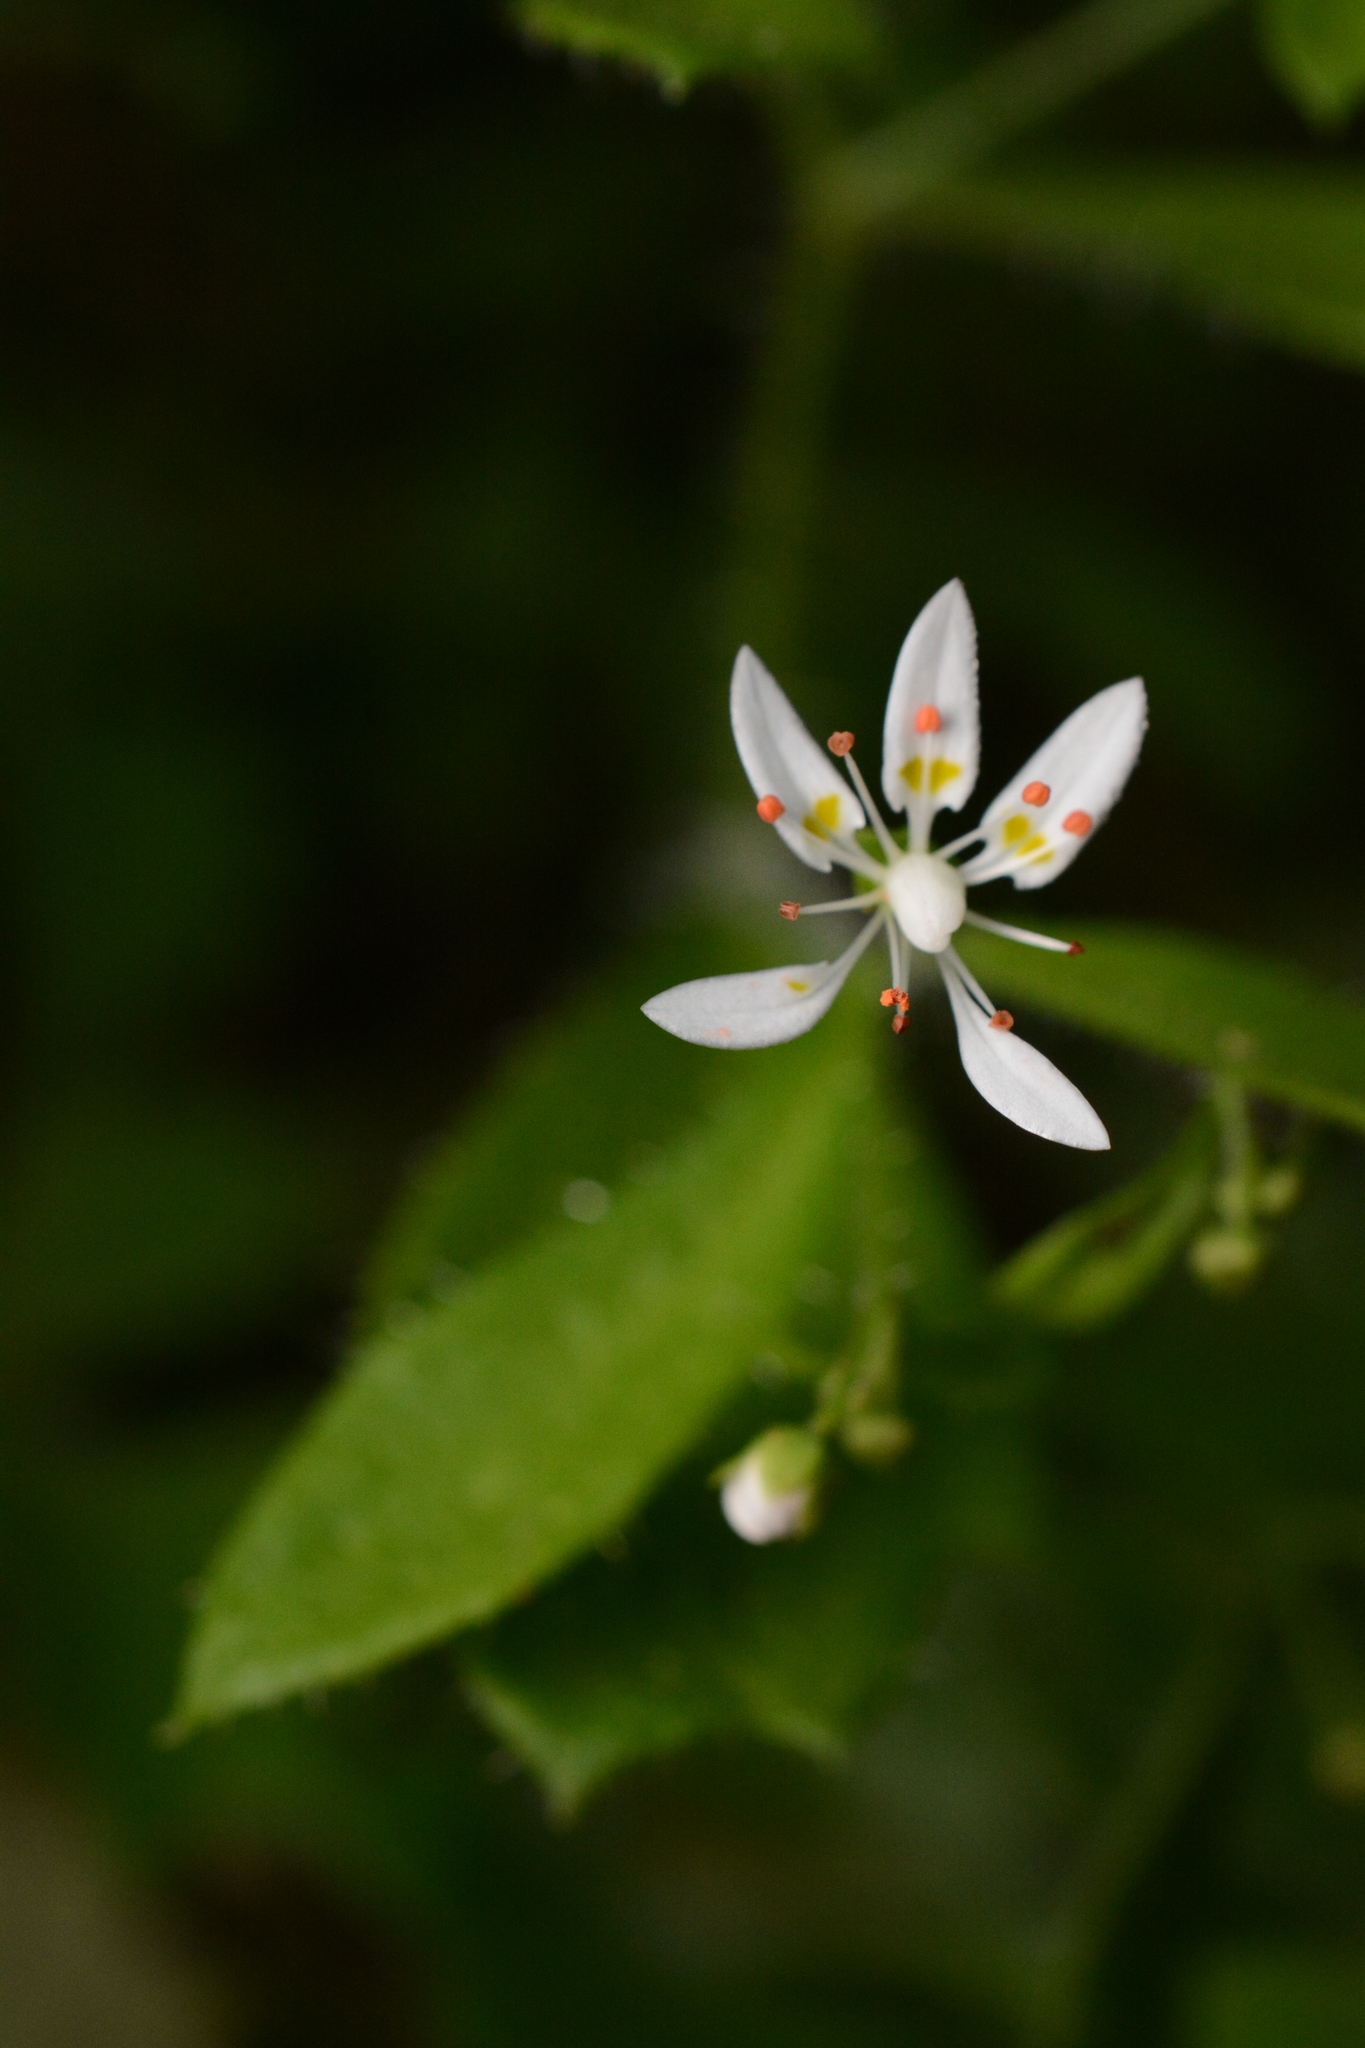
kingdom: Plantae
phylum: Tracheophyta
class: Magnoliopsida
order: Saxifragales
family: Saxifragaceae
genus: Micranthes
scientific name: Micranthes petiolaris
